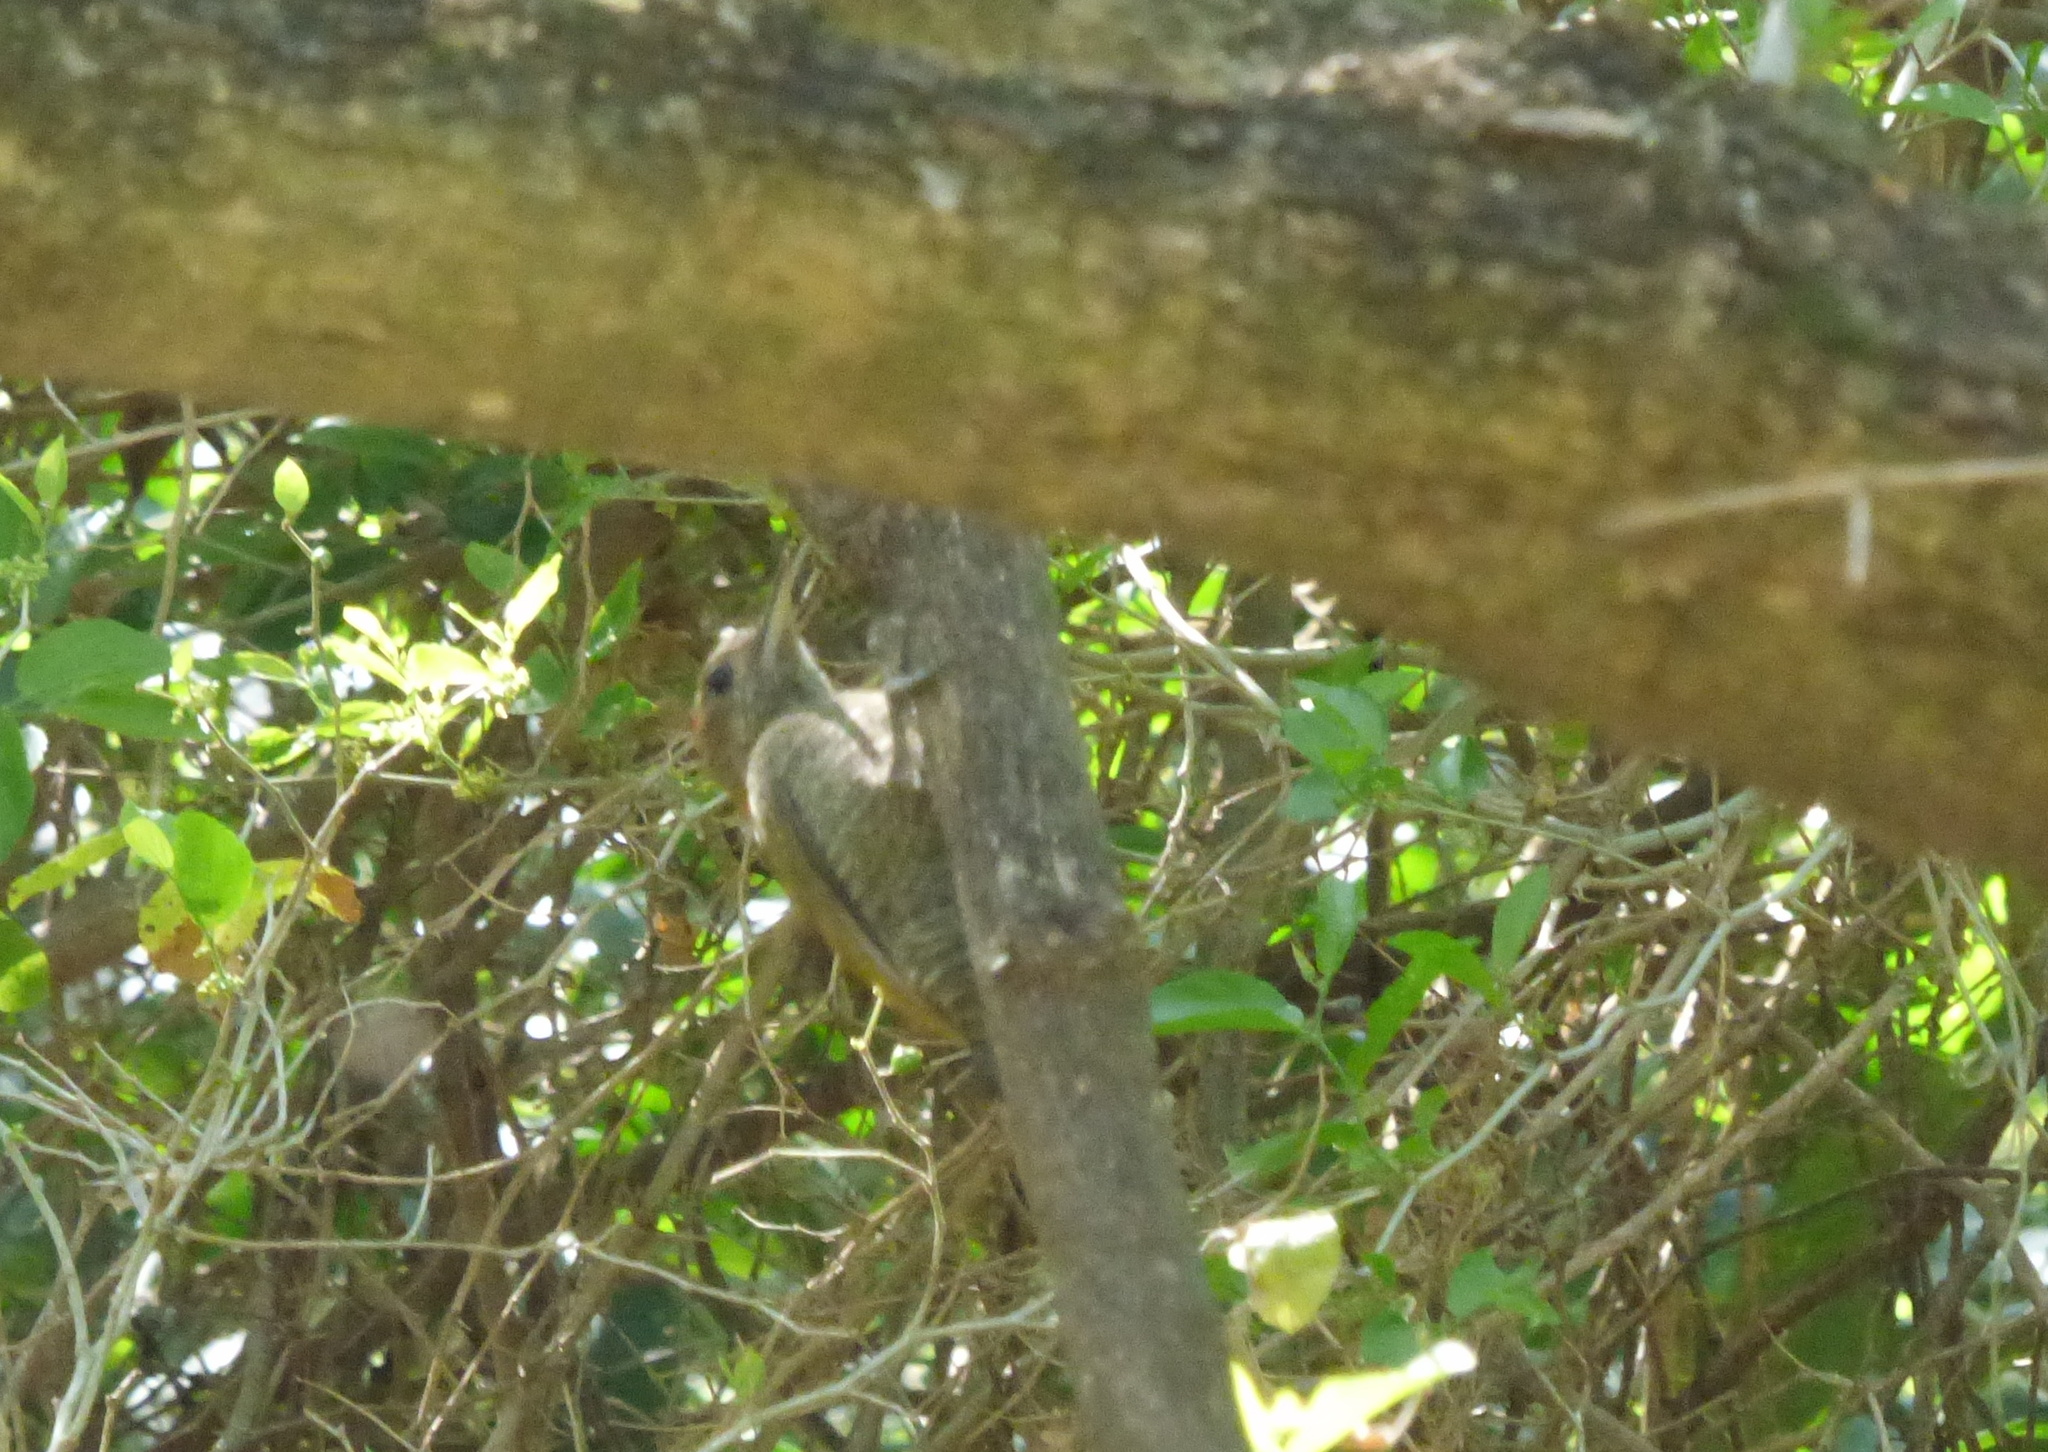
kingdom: Animalia
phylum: Chordata
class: Aves
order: Piciformes
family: Picidae
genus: Veniliornis
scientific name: Veniliornis passerinus
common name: Little woodpecker
